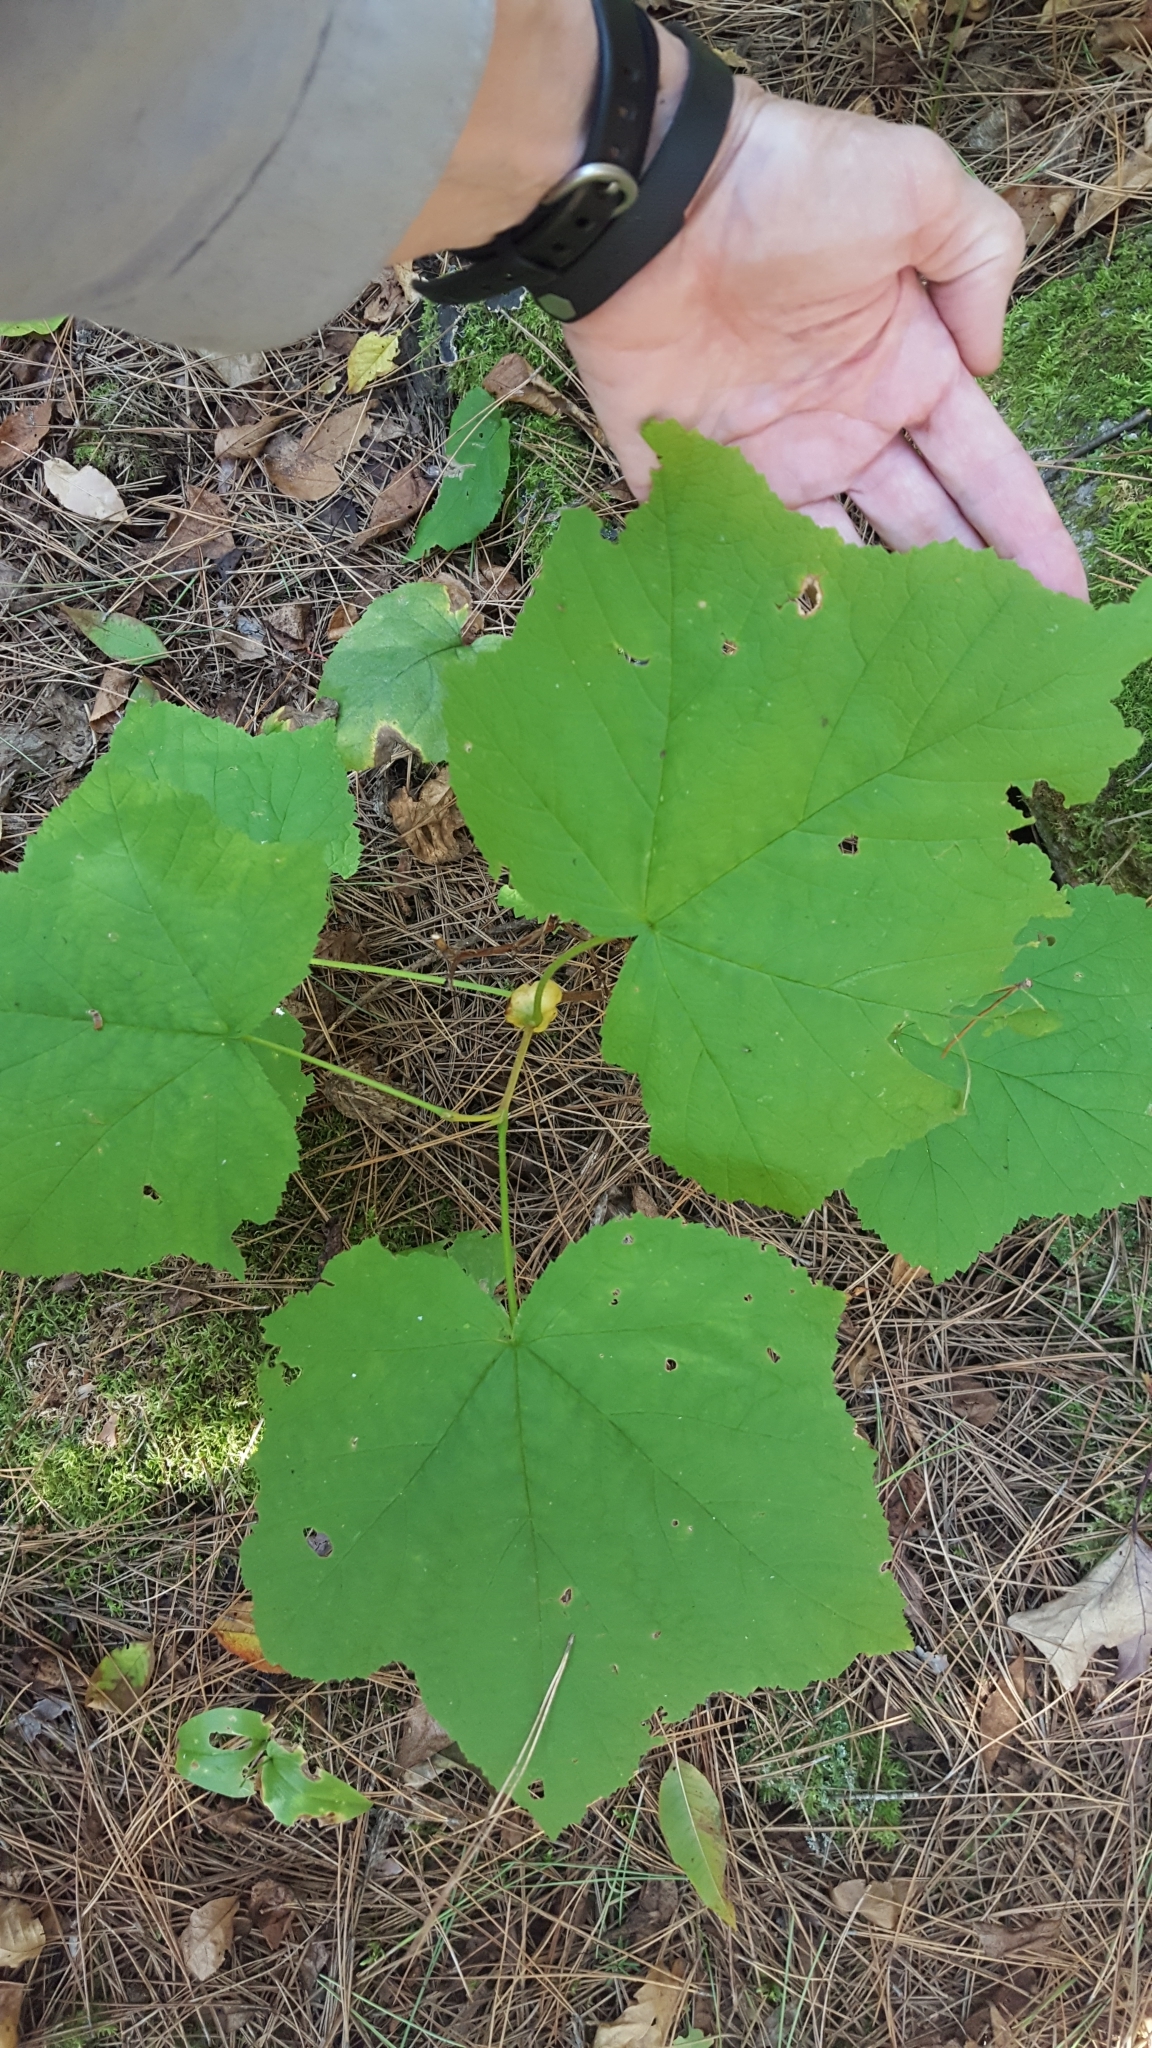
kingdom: Plantae
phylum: Tracheophyta
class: Magnoliopsida
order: Rosales
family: Rosaceae
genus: Rubus
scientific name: Rubus parviflorus
